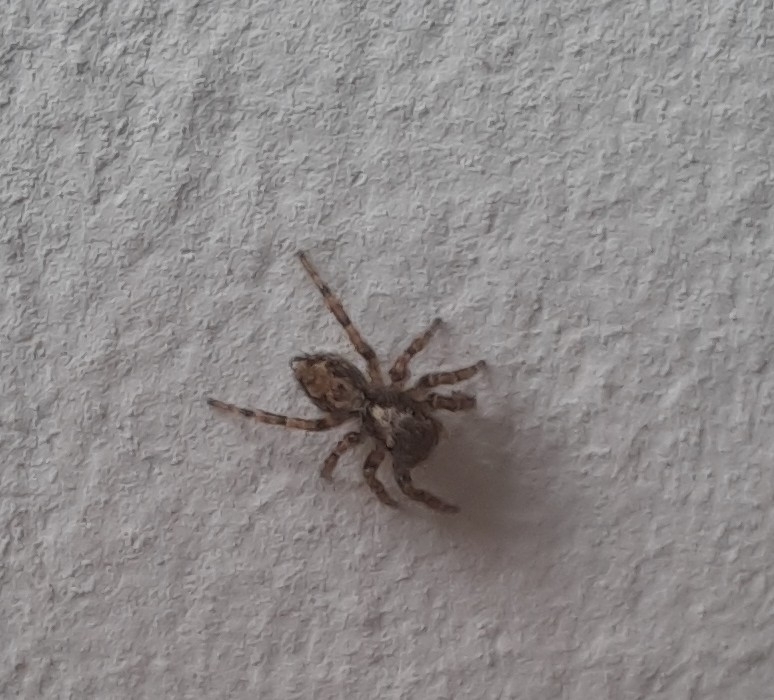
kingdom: Animalia
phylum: Arthropoda
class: Arachnida
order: Araneae
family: Salticidae
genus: Pseudeuophrys
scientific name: Pseudeuophrys lanigera
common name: Jumping spider
